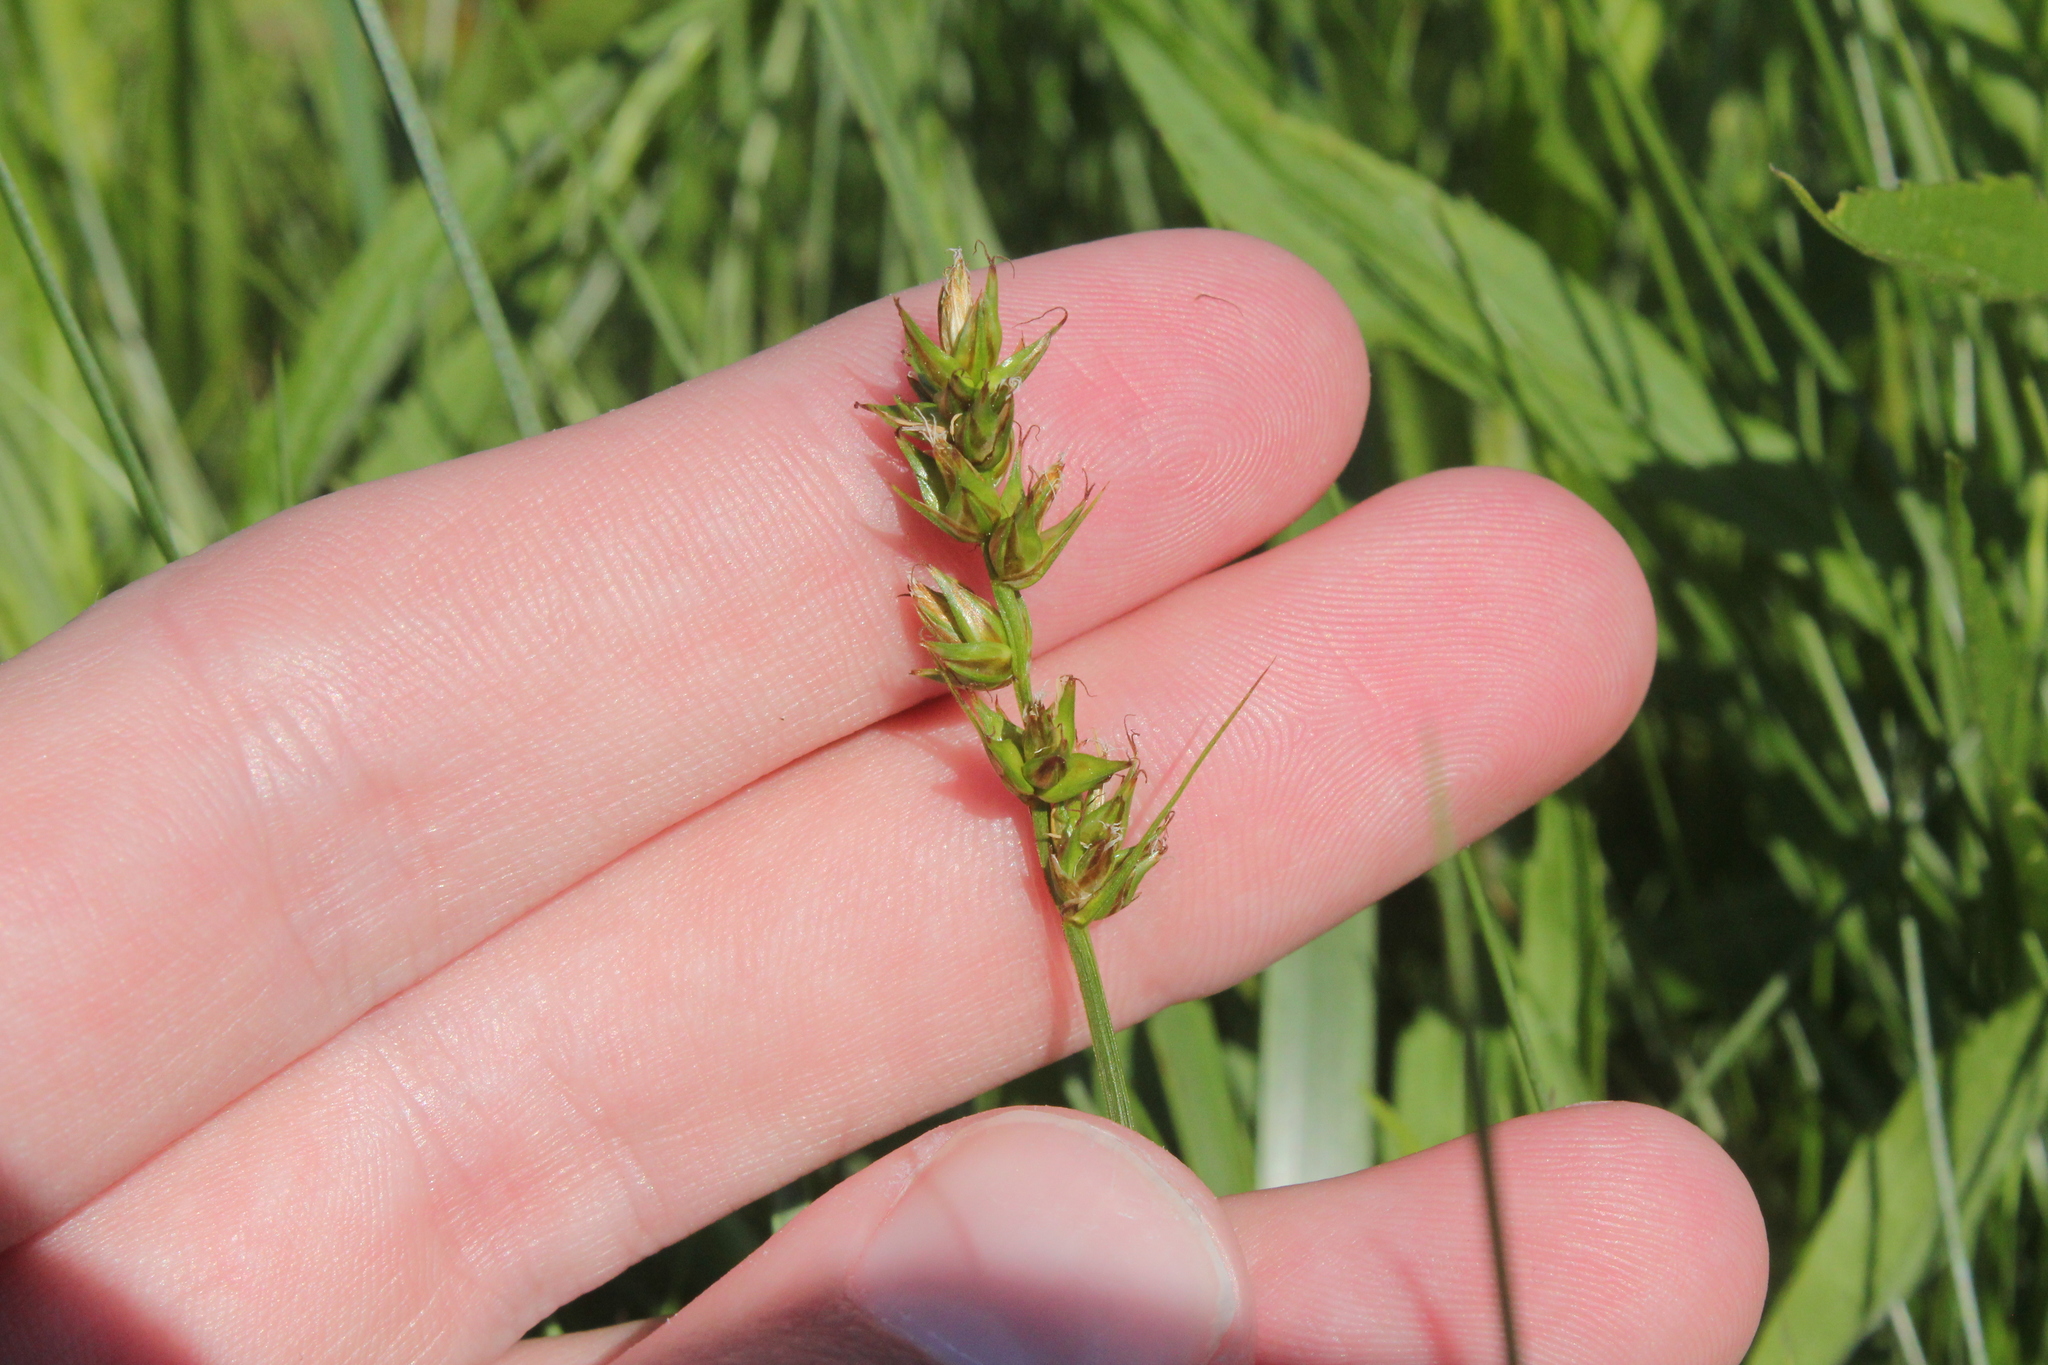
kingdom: Plantae
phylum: Tracheophyta
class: Liliopsida
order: Poales
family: Cyperaceae
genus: Carex
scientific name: Carex spicata
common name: Spiked sedge
